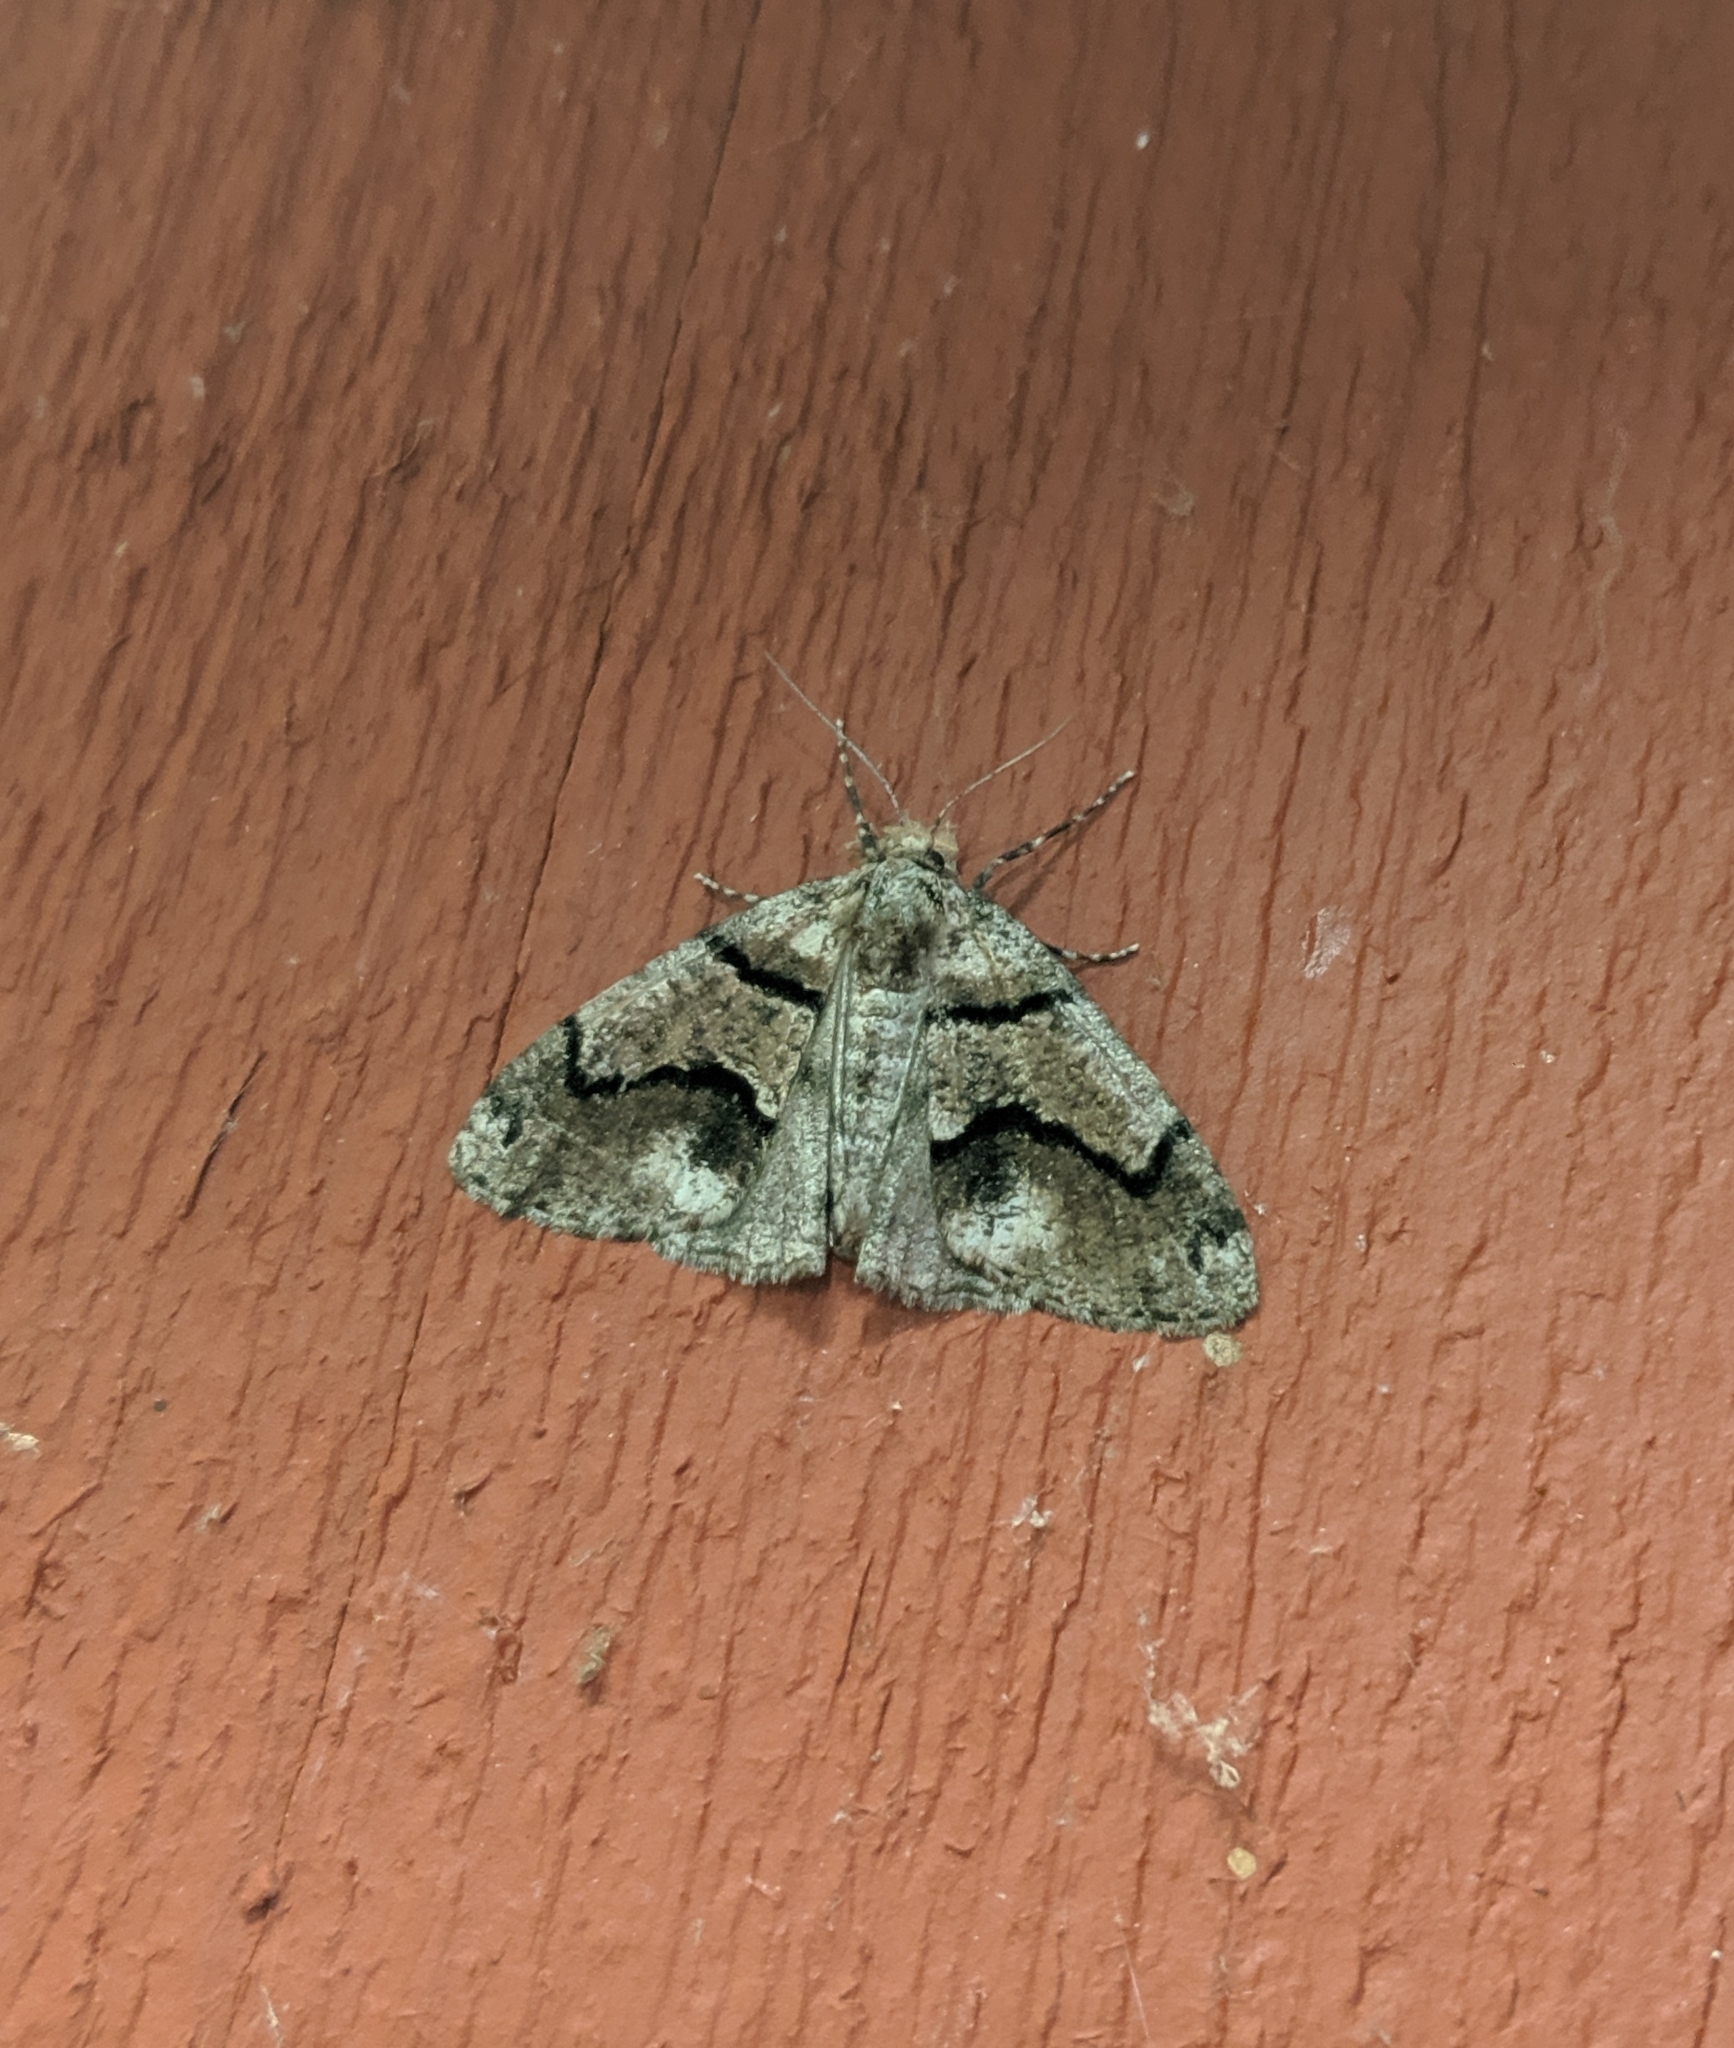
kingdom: Animalia
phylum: Arthropoda
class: Insecta
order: Lepidoptera
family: Geometridae
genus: Gabriola
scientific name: Gabriola dyari
